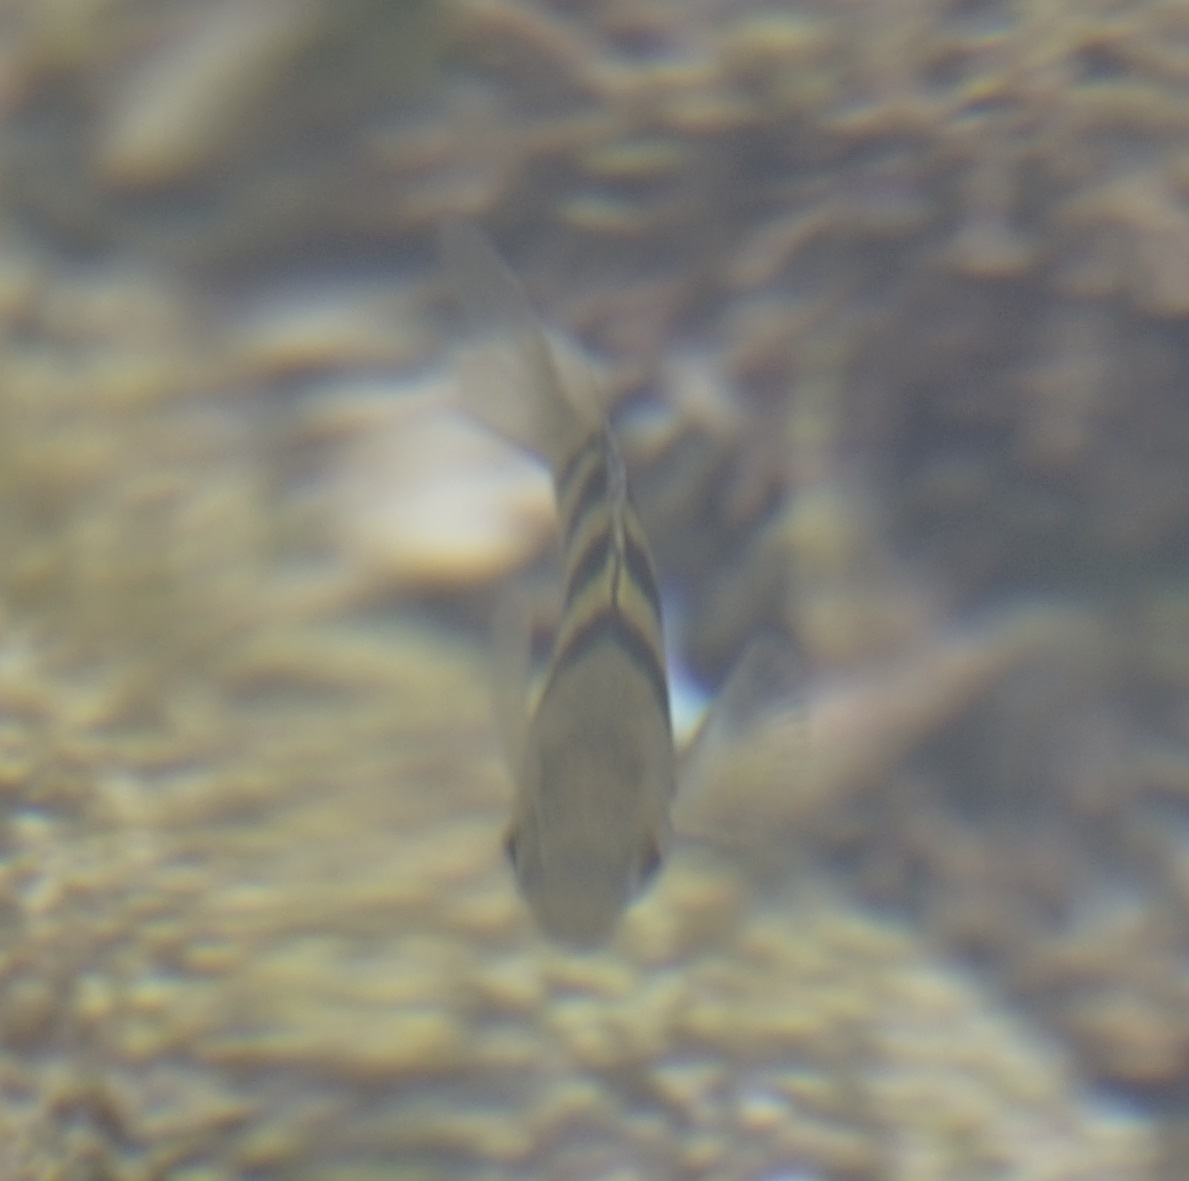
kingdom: Animalia
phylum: Chordata
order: Perciformes
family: Pomacentridae
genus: Abudefduf
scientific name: Abudefduf vaigiensis
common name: Indo-pacific sergeant
